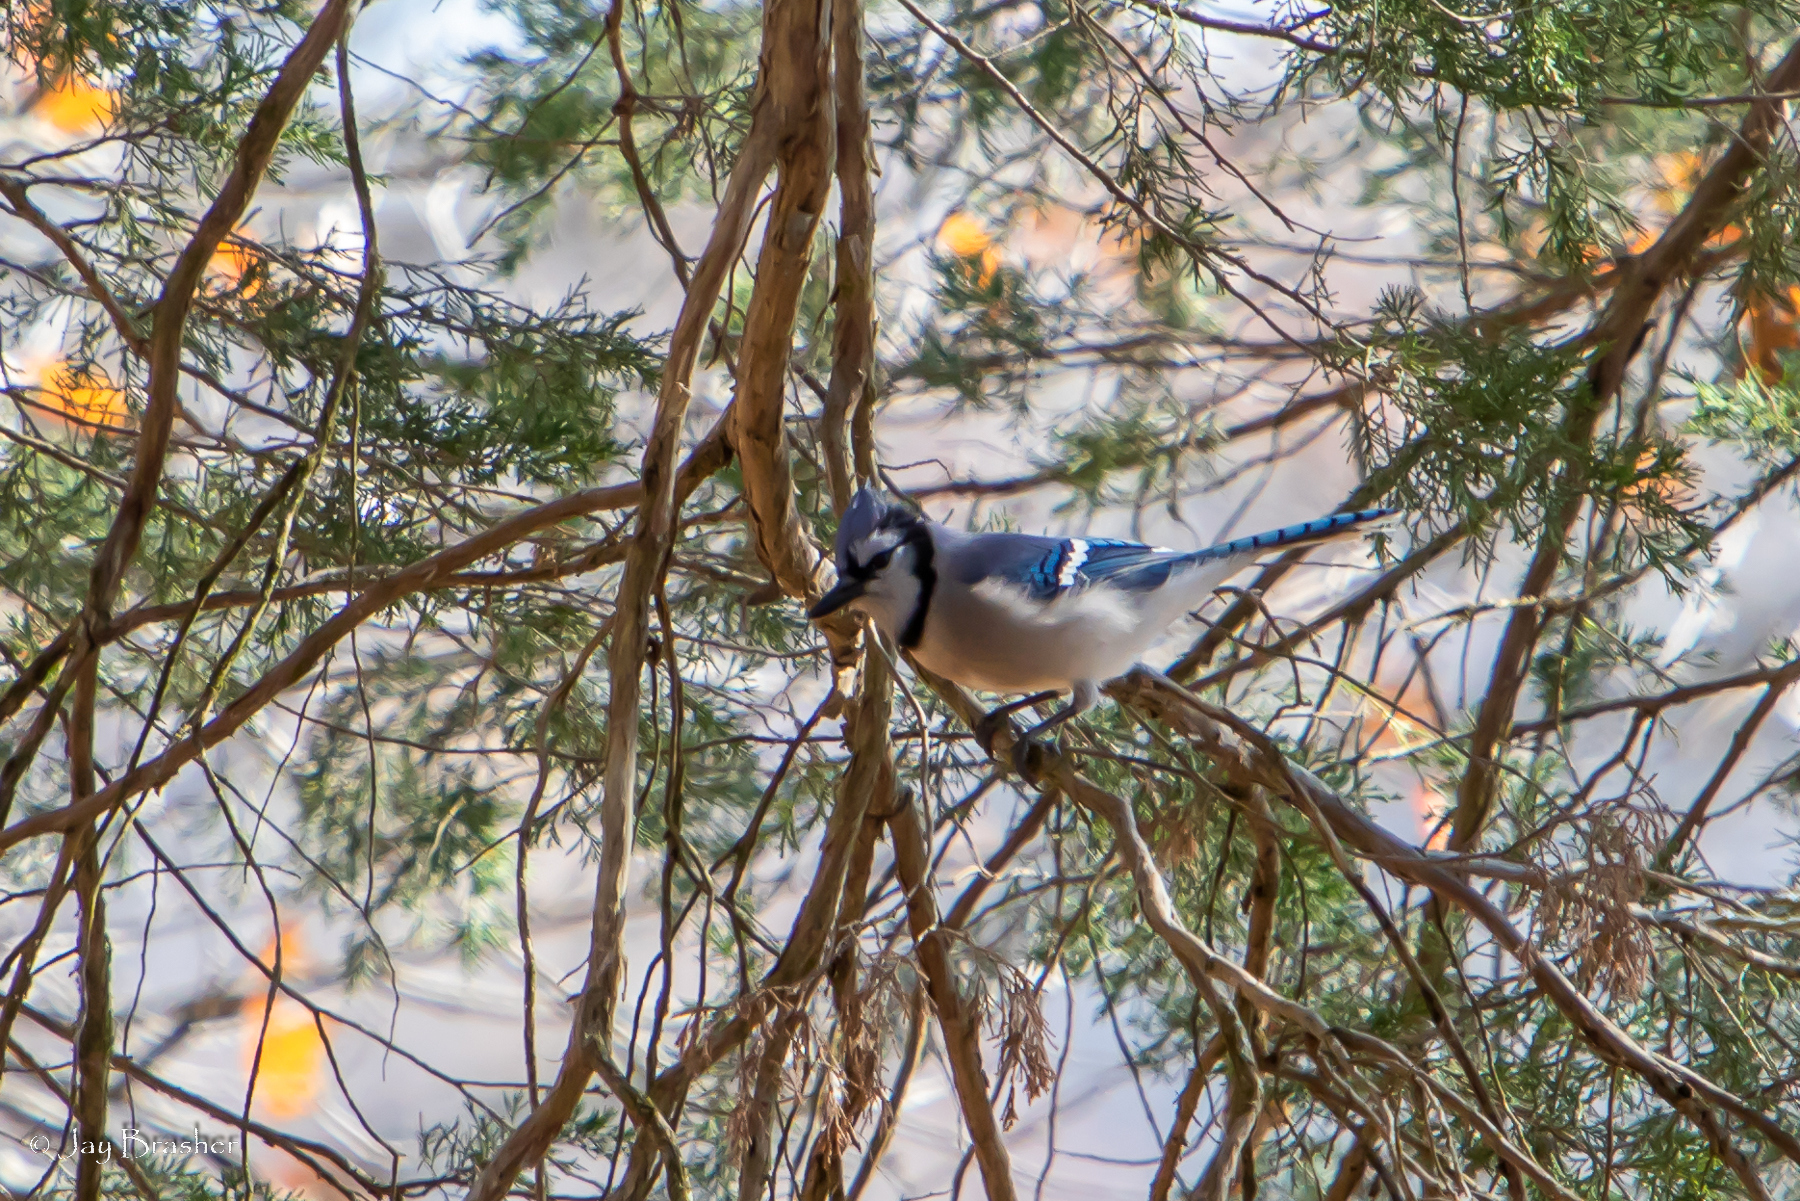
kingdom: Animalia
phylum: Chordata
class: Aves
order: Passeriformes
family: Corvidae
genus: Cyanocitta
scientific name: Cyanocitta cristata
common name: Blue jay
